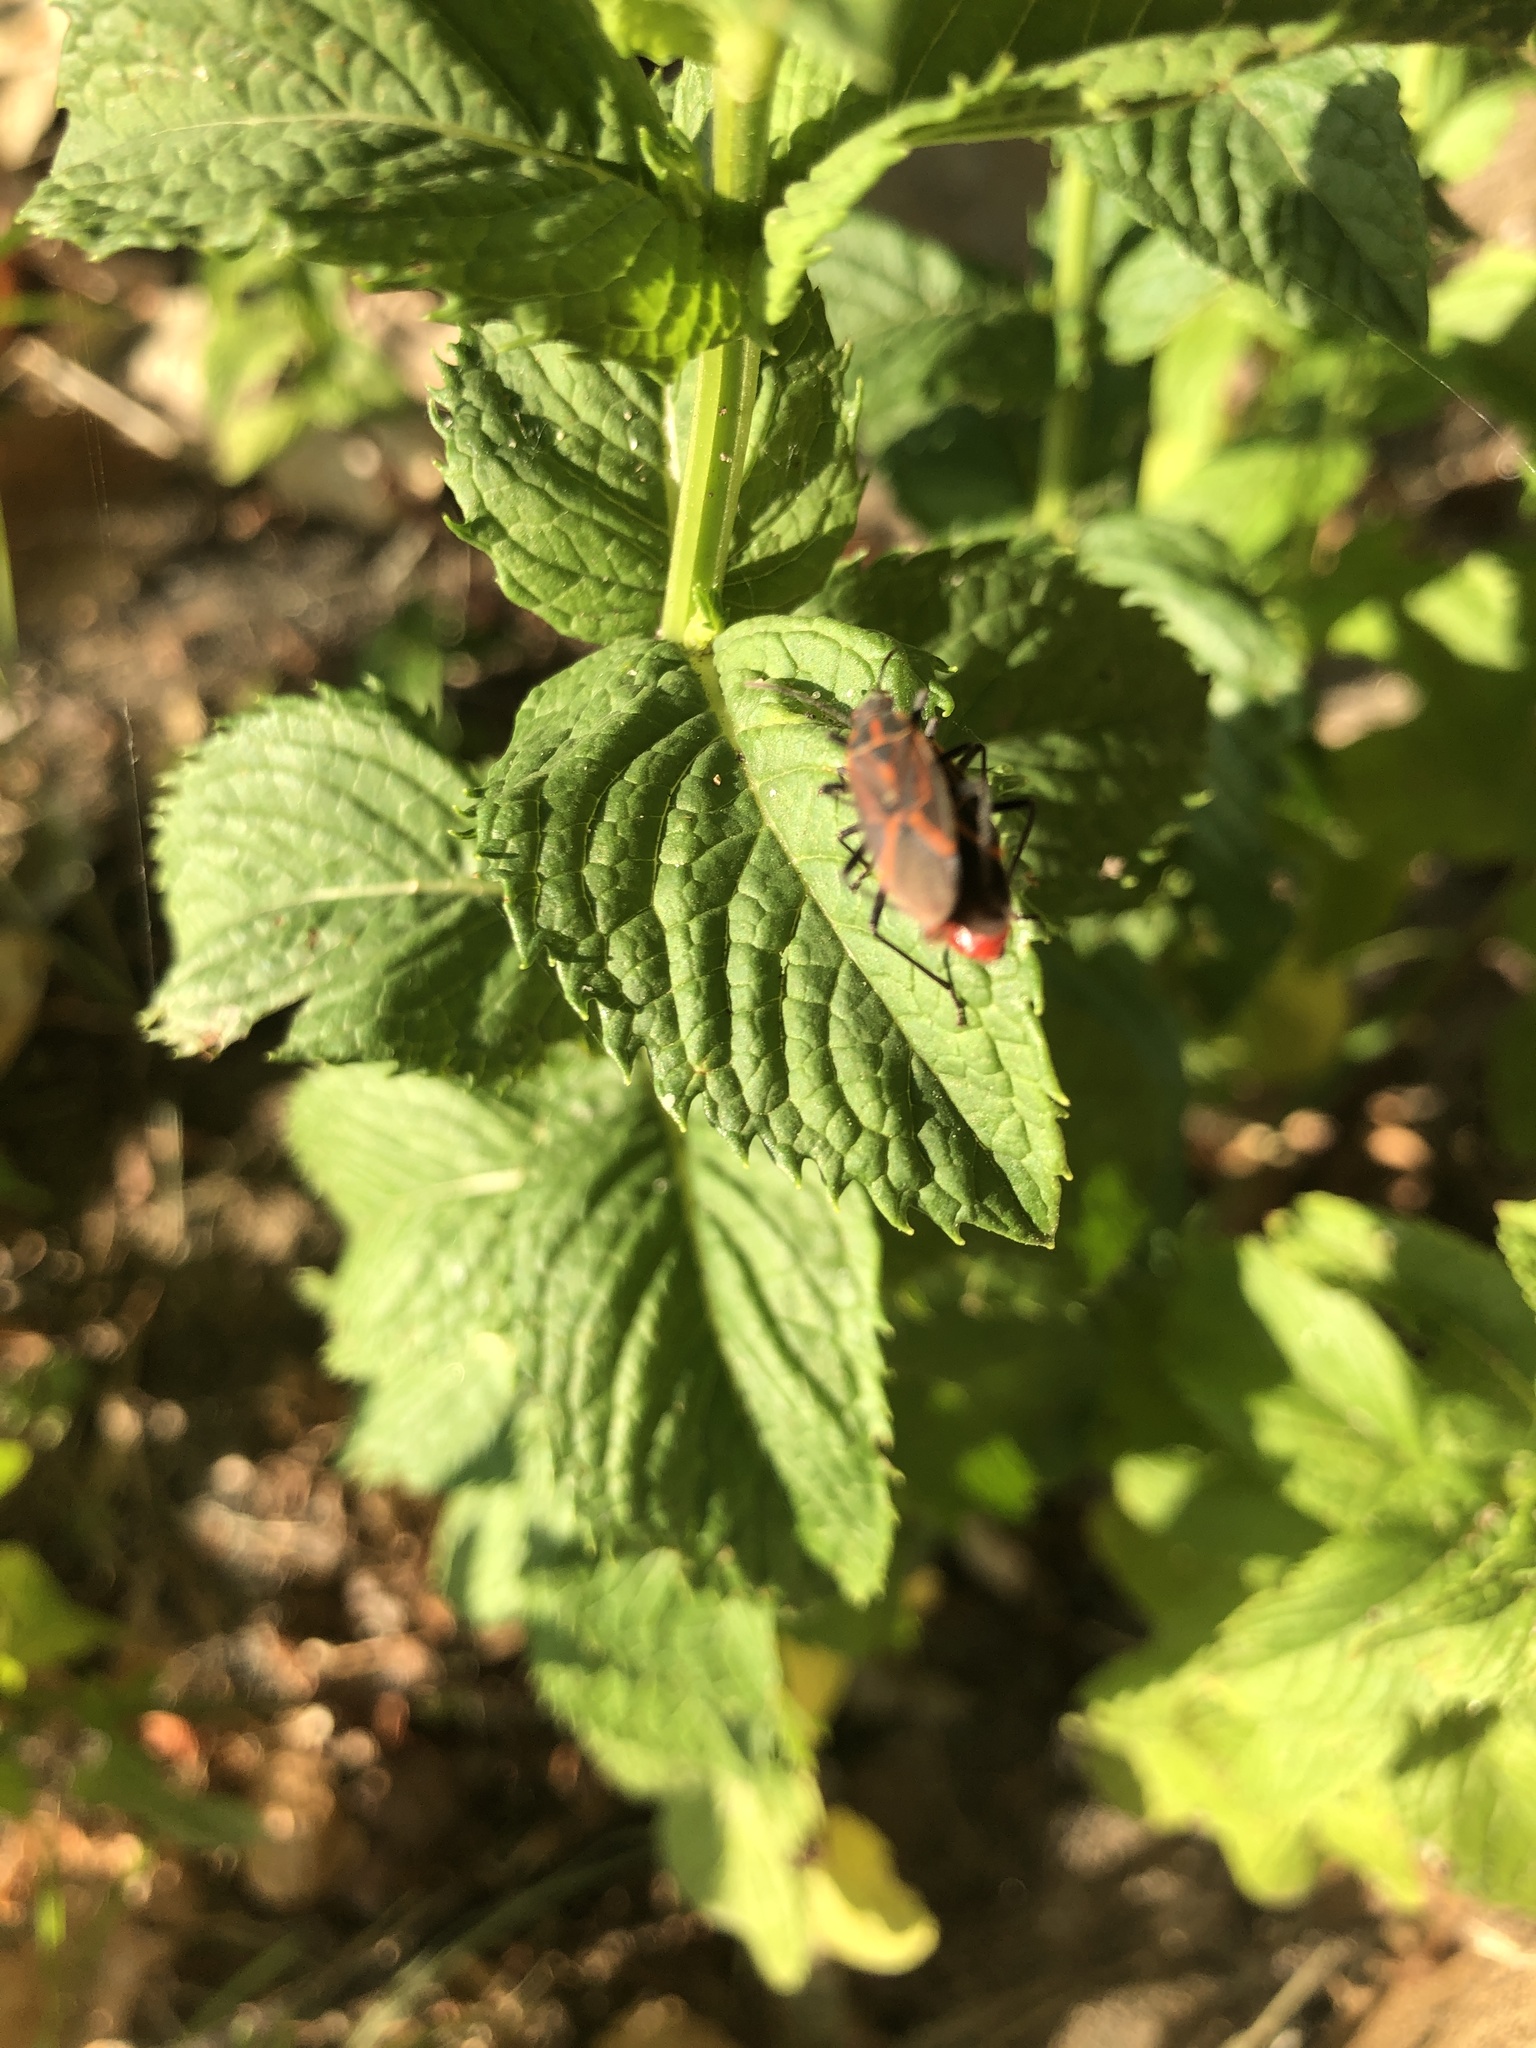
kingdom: Animalia
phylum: Arthropoda
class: Insecta
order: Hemiptera
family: Rhopalidae
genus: Boisea
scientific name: Boisea rubrolineata
